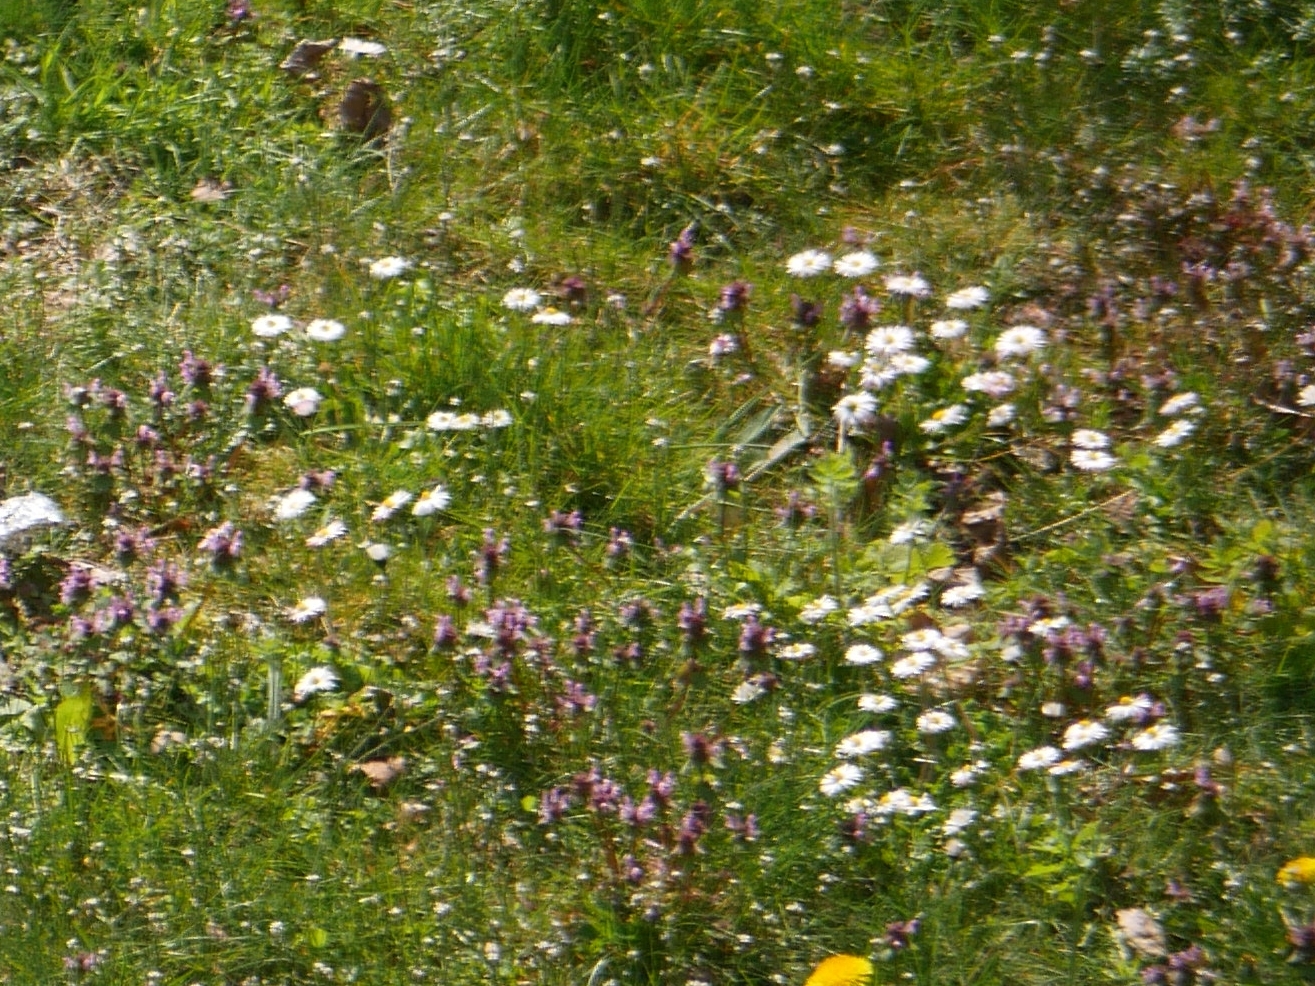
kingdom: Plantae
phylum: Tracheophyta
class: Magnoliopsida
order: Asterales
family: Asteraceae
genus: Bellis
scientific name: Bellis perennis
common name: Lawndaisy
